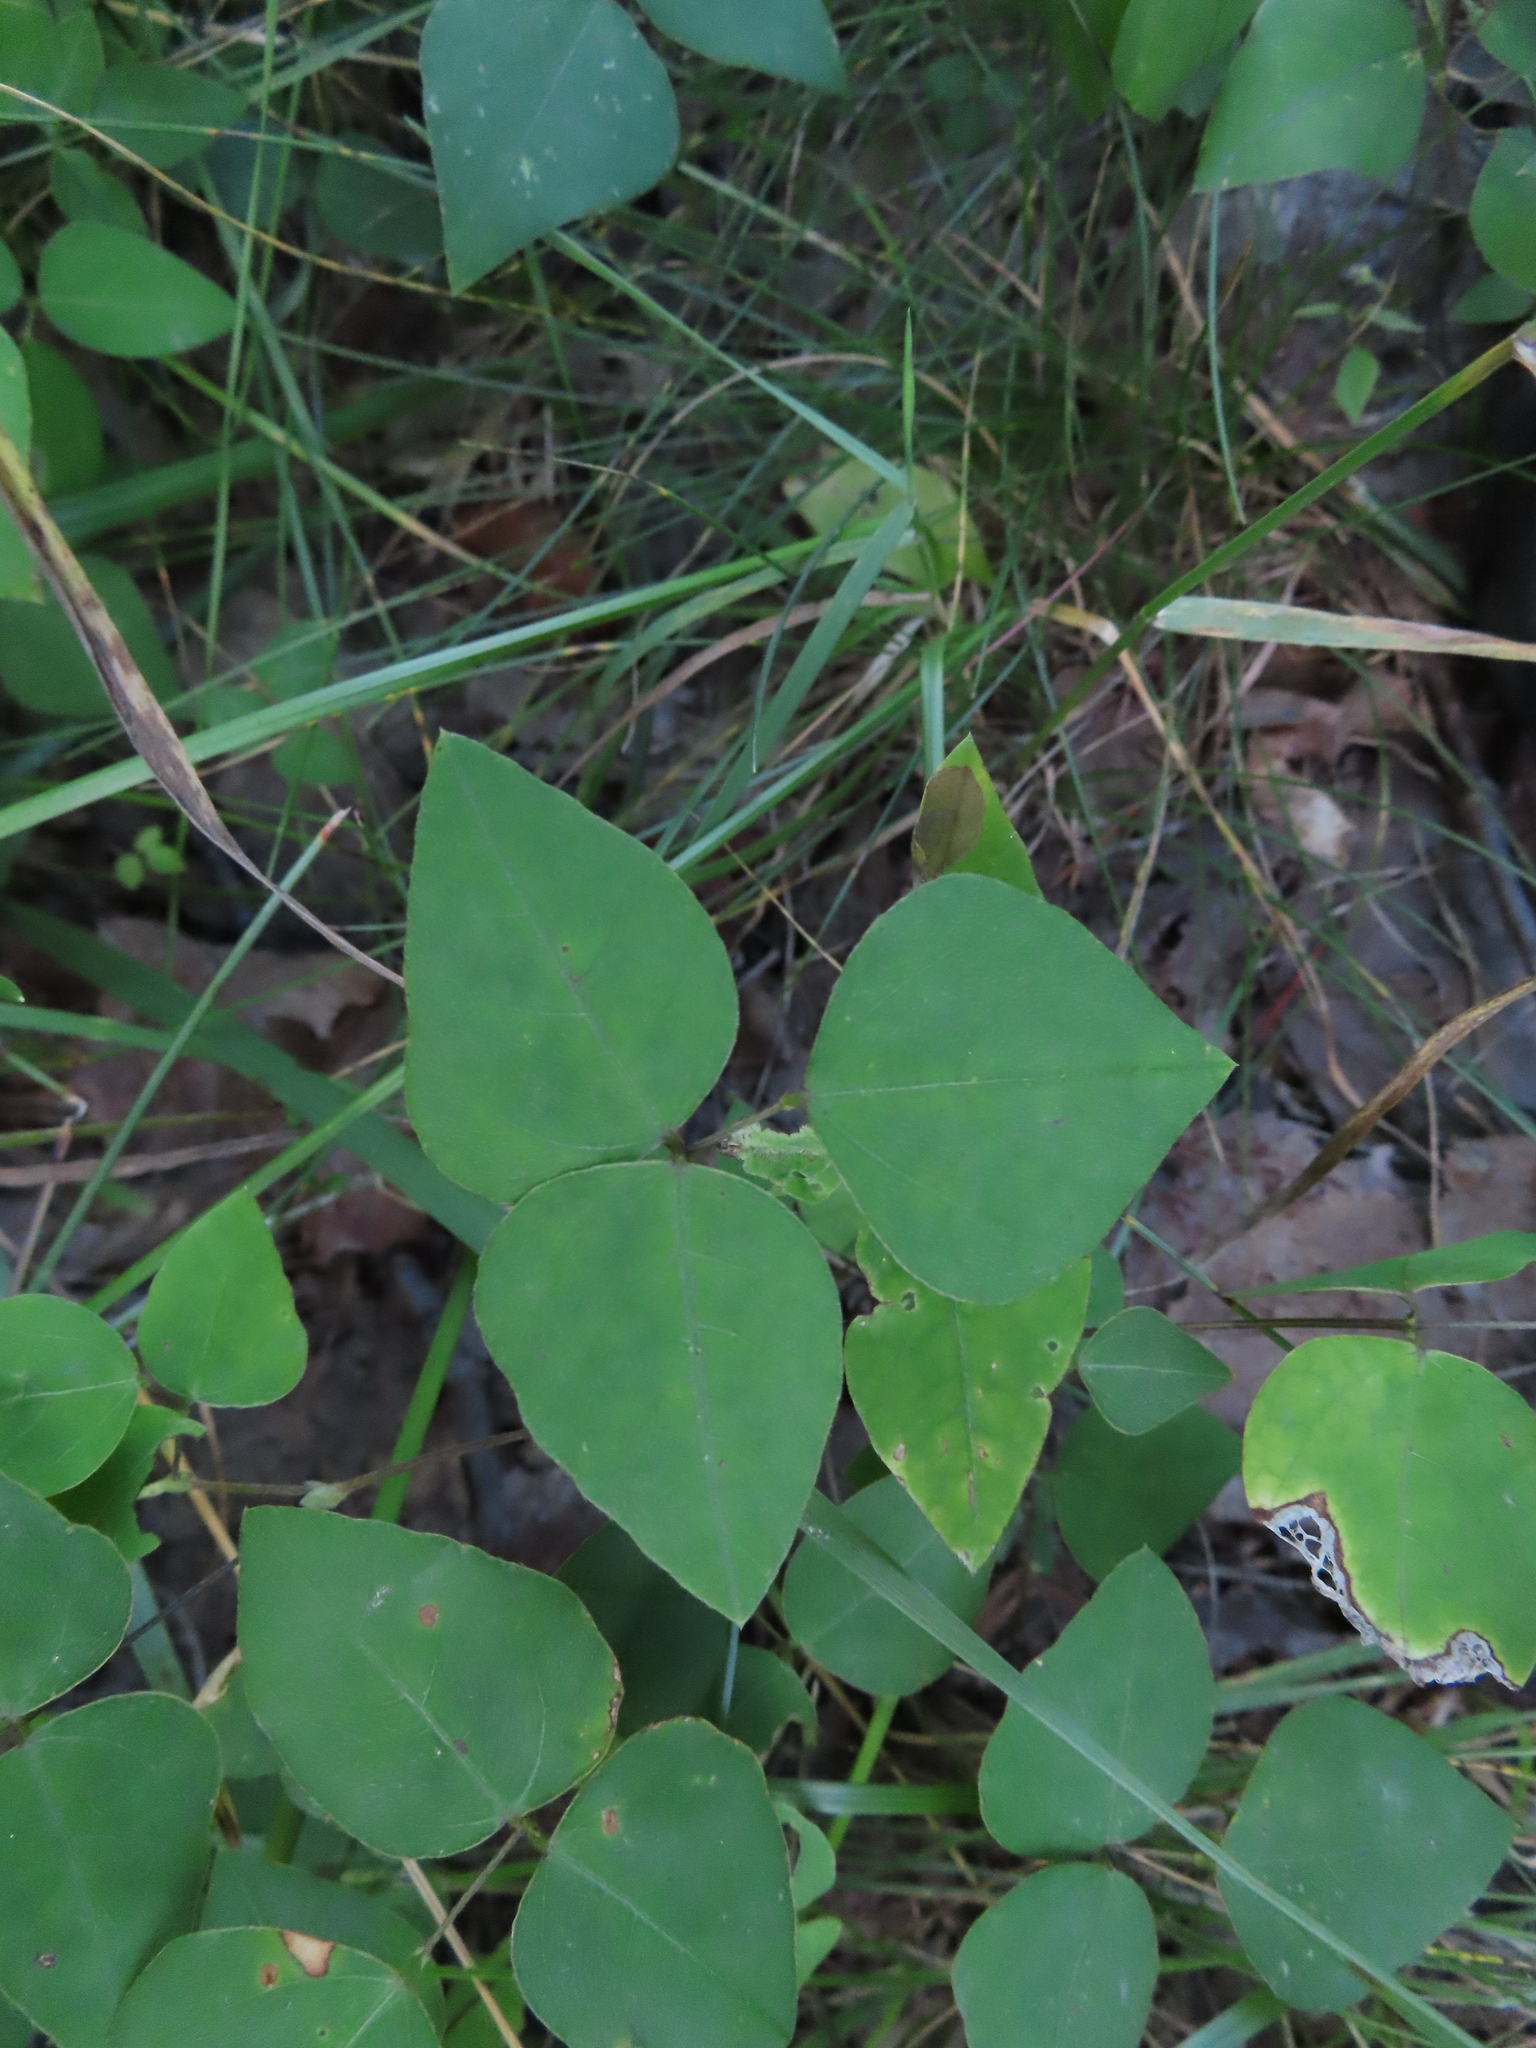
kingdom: Plantae
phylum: Tracheophyta
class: Magnoliopsida
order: Fabales
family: Fabaceae
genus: Amphicarpaea
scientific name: Amphicarpaea bracteata
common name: American hog peanut
